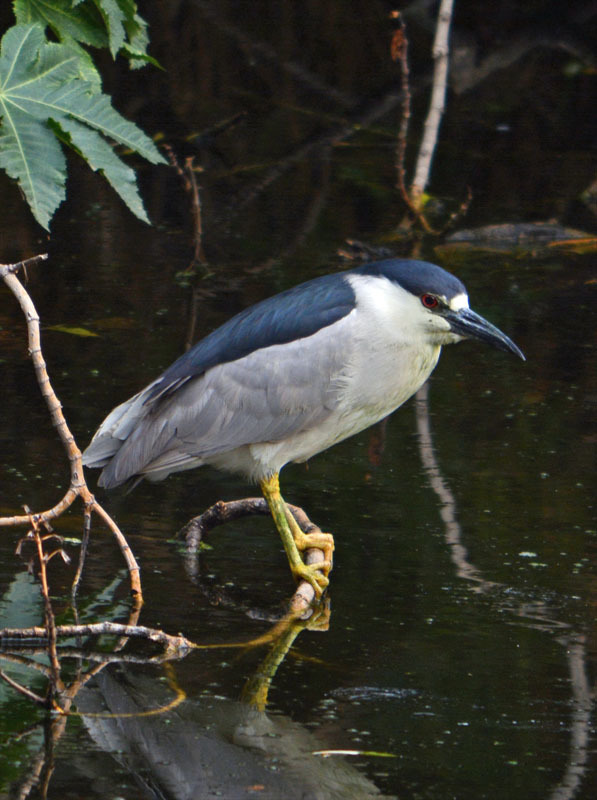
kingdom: Animalia
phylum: Chordata
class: Aves
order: Pelecaniformes
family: Ardeidae
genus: Nycticorax
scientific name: Nycticorax nycticorax
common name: Black-crowned night heron
